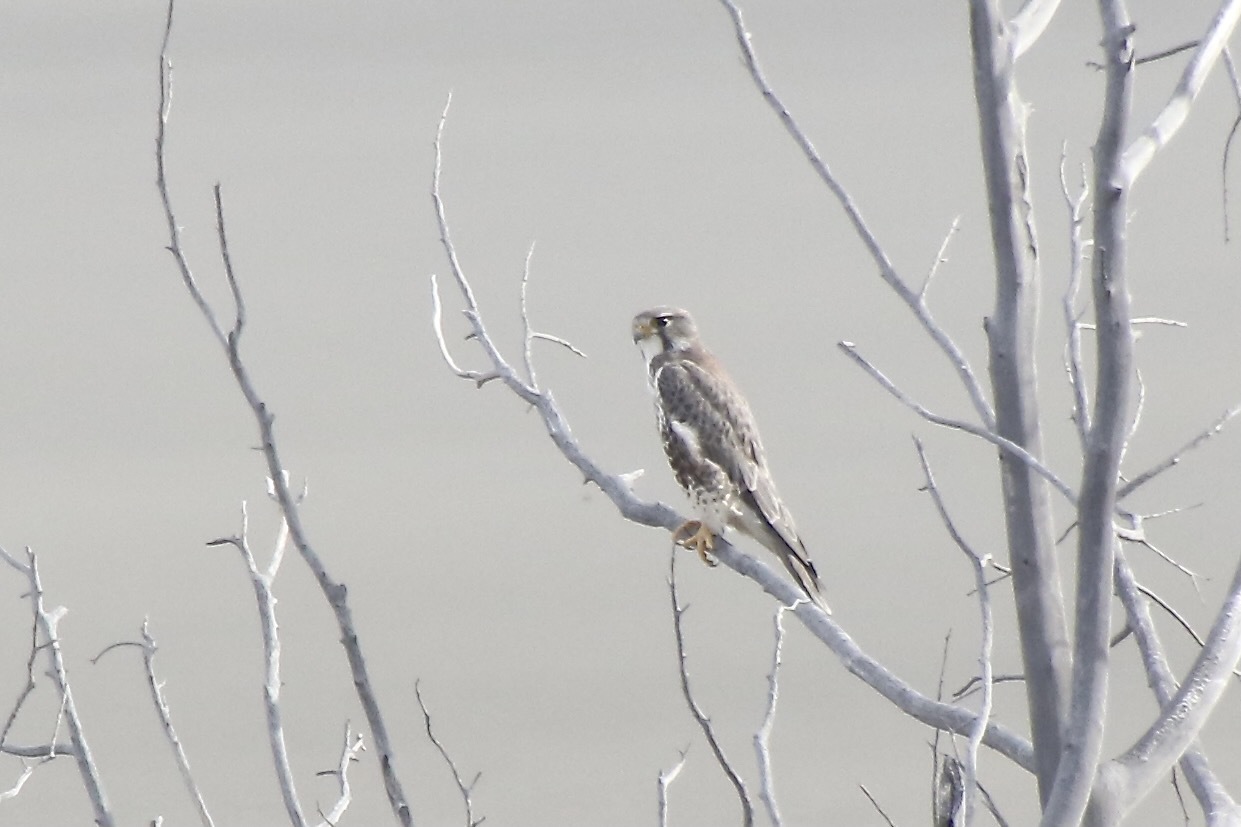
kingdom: Animalia
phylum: Chordata
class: Aves
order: Falconiformes
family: Falconidae
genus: Falco
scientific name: Falco mexicanus
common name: Prairie falcon
